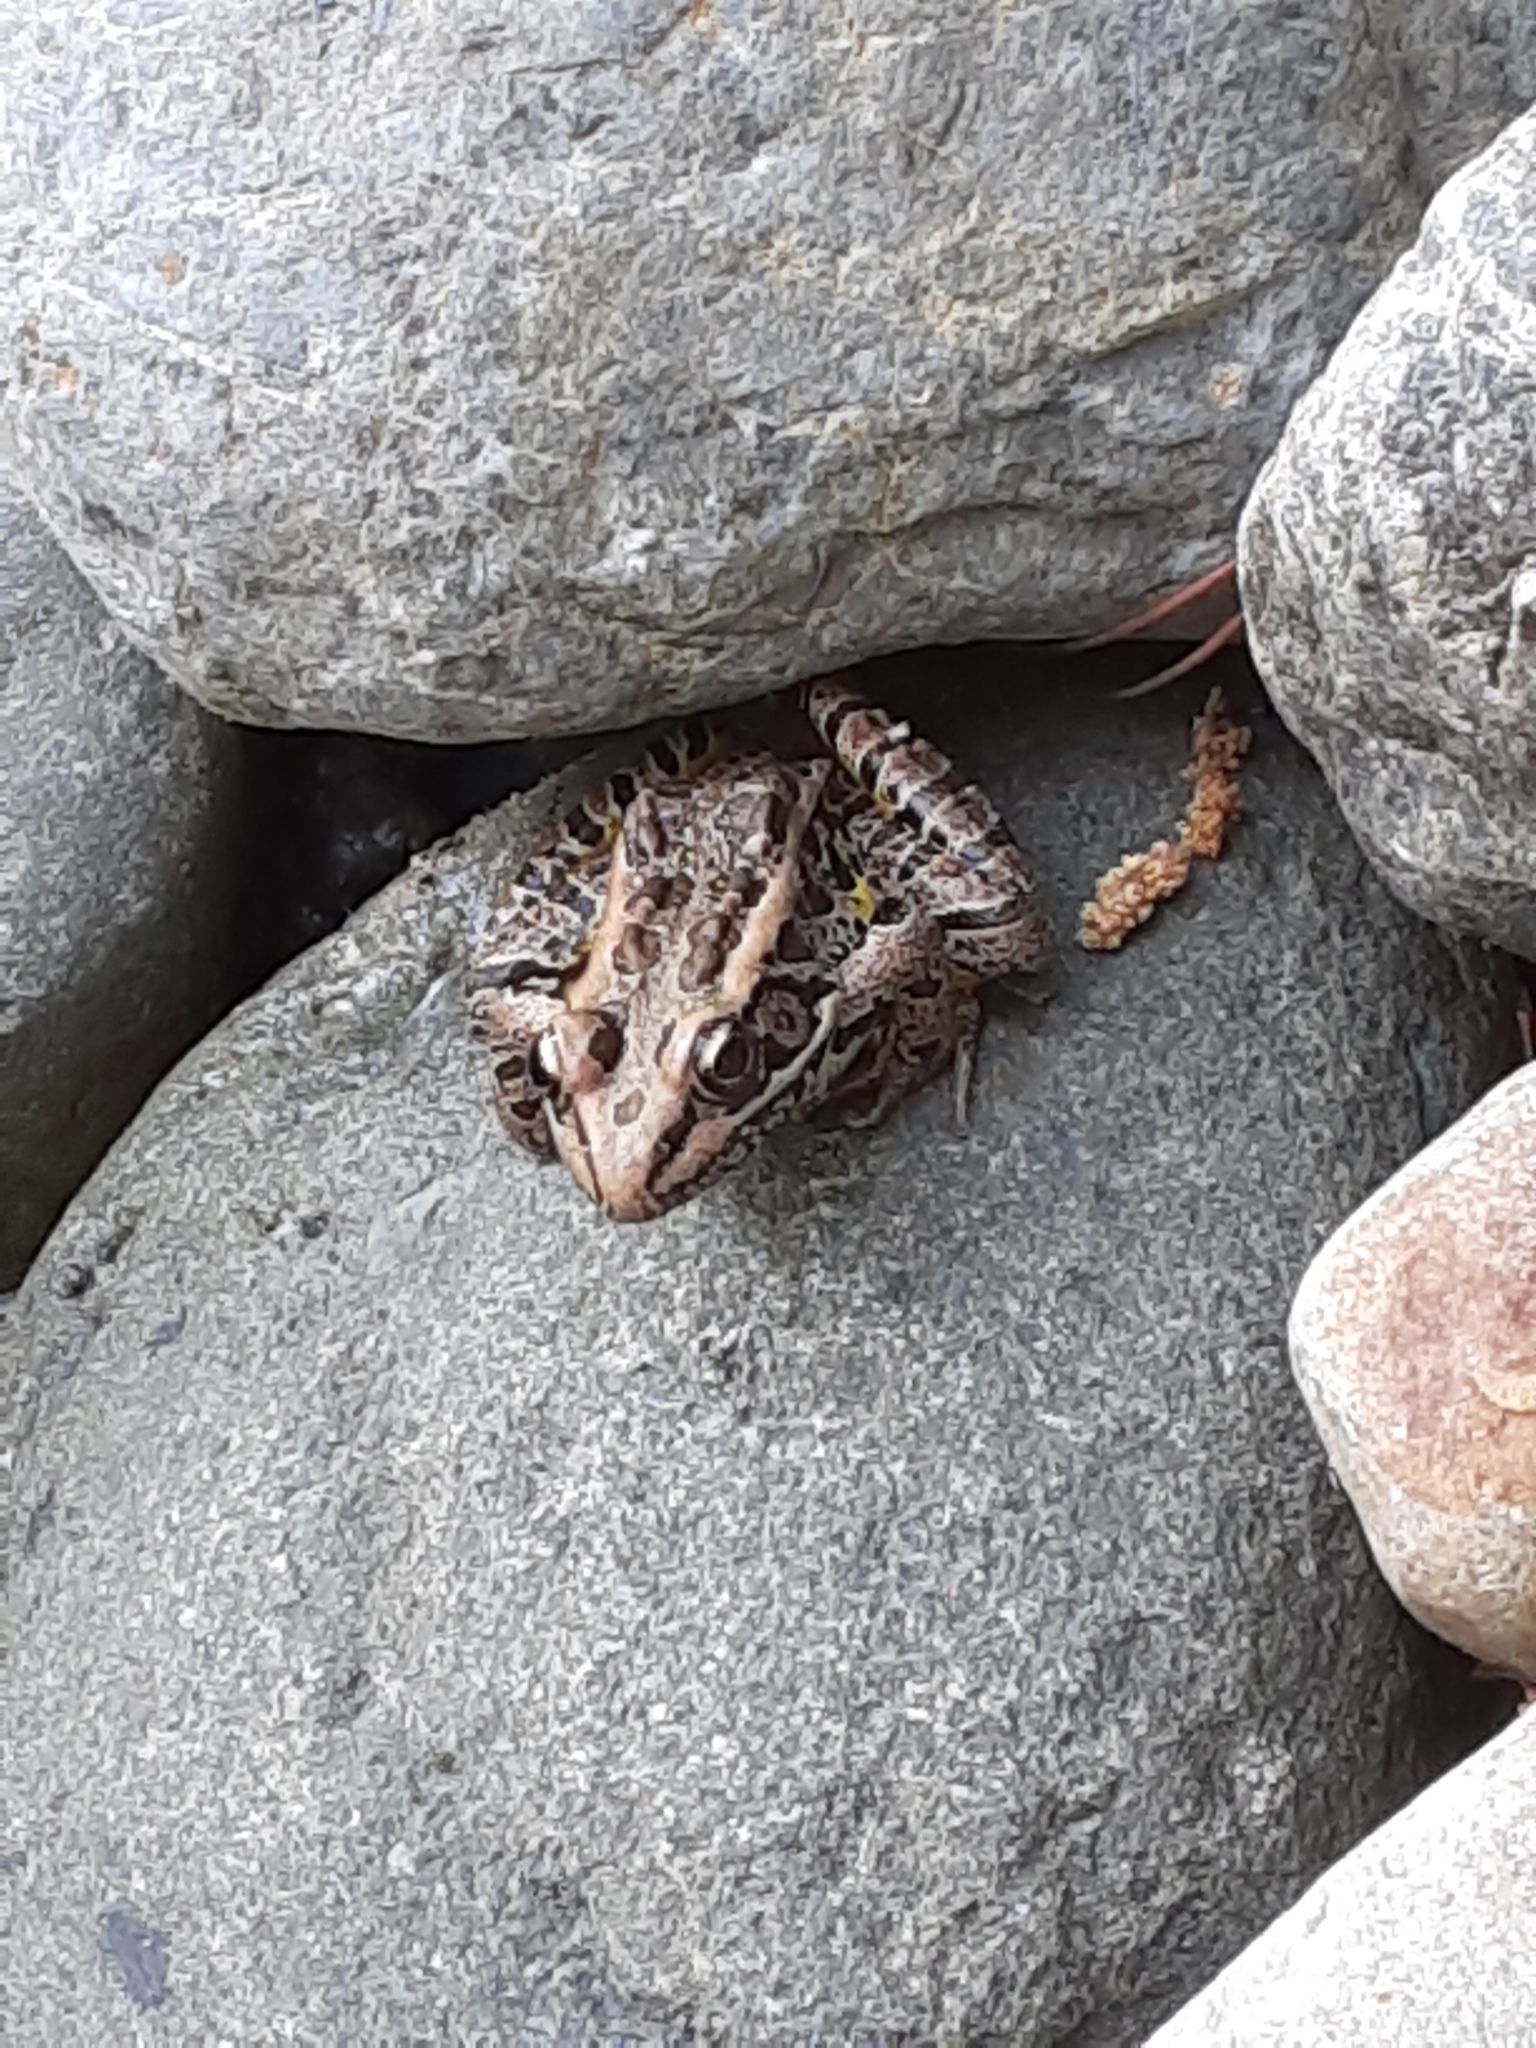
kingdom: Animalia
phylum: Chordata
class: Amphibia
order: Anura
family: Ranidae
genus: Lithobates
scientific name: Lithobates palustris
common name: Pickerel frog
